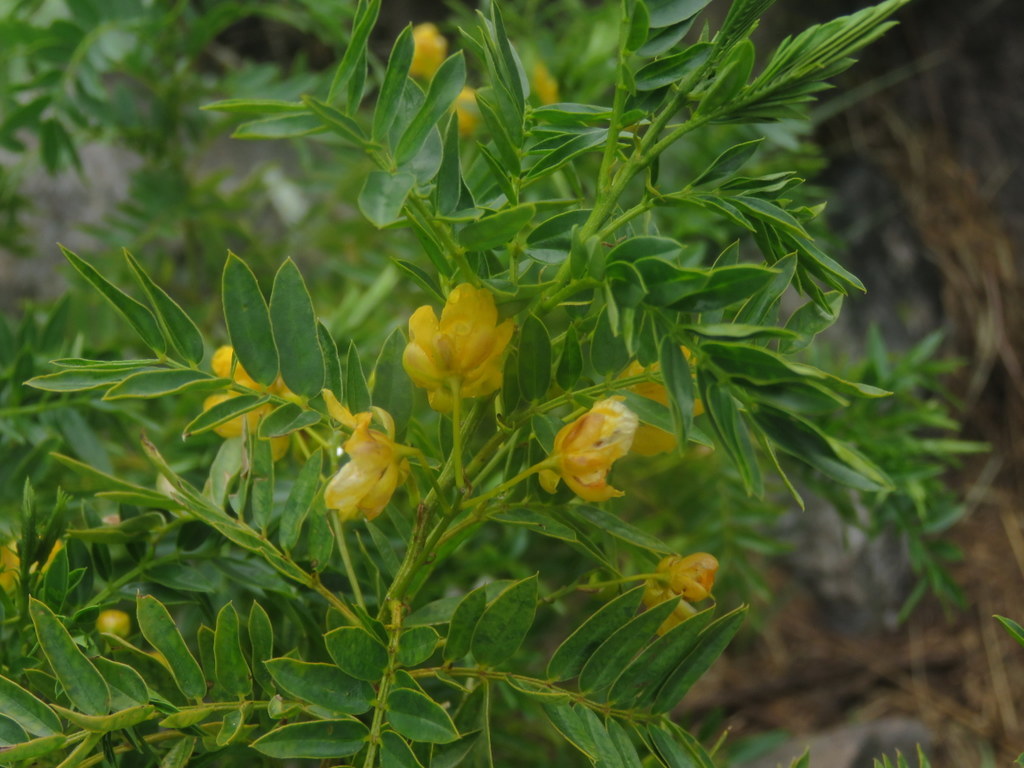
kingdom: Plantae
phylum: Tracheophyta
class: Magnoliopsida
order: Fabales
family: Fabaceae
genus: Senna
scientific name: Senna birostris
